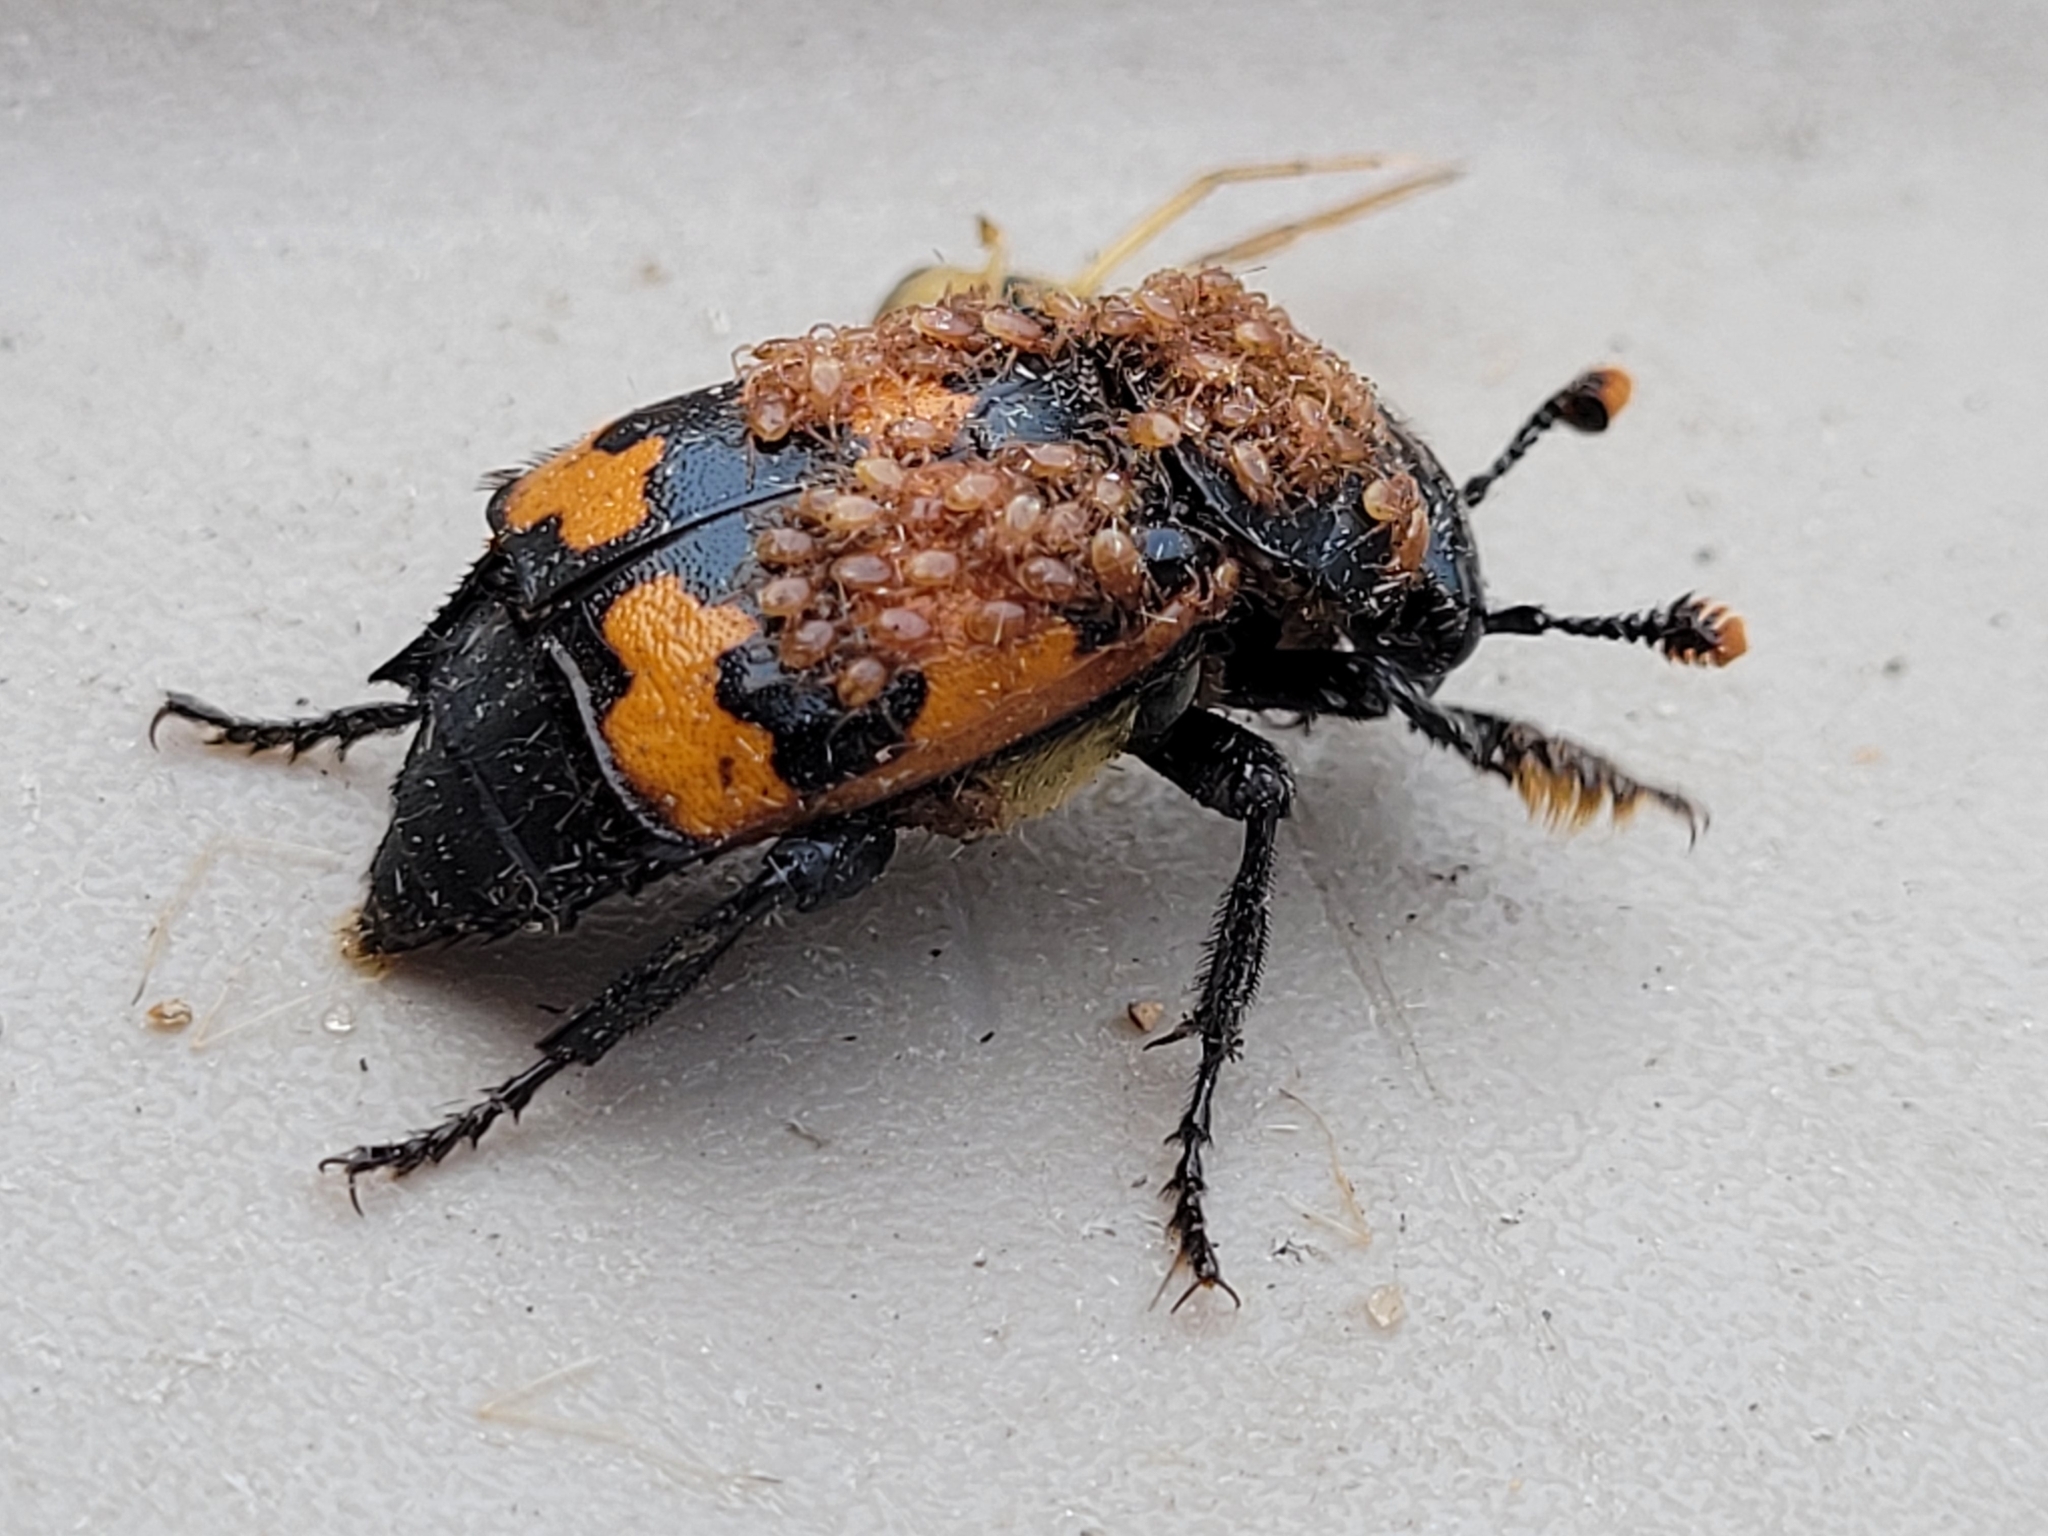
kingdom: Animalia
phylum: Arthropoda
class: Insecta
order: Coleoptera
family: Staphylinidae
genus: Nicrophorus
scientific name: Nicrophorus investigator
